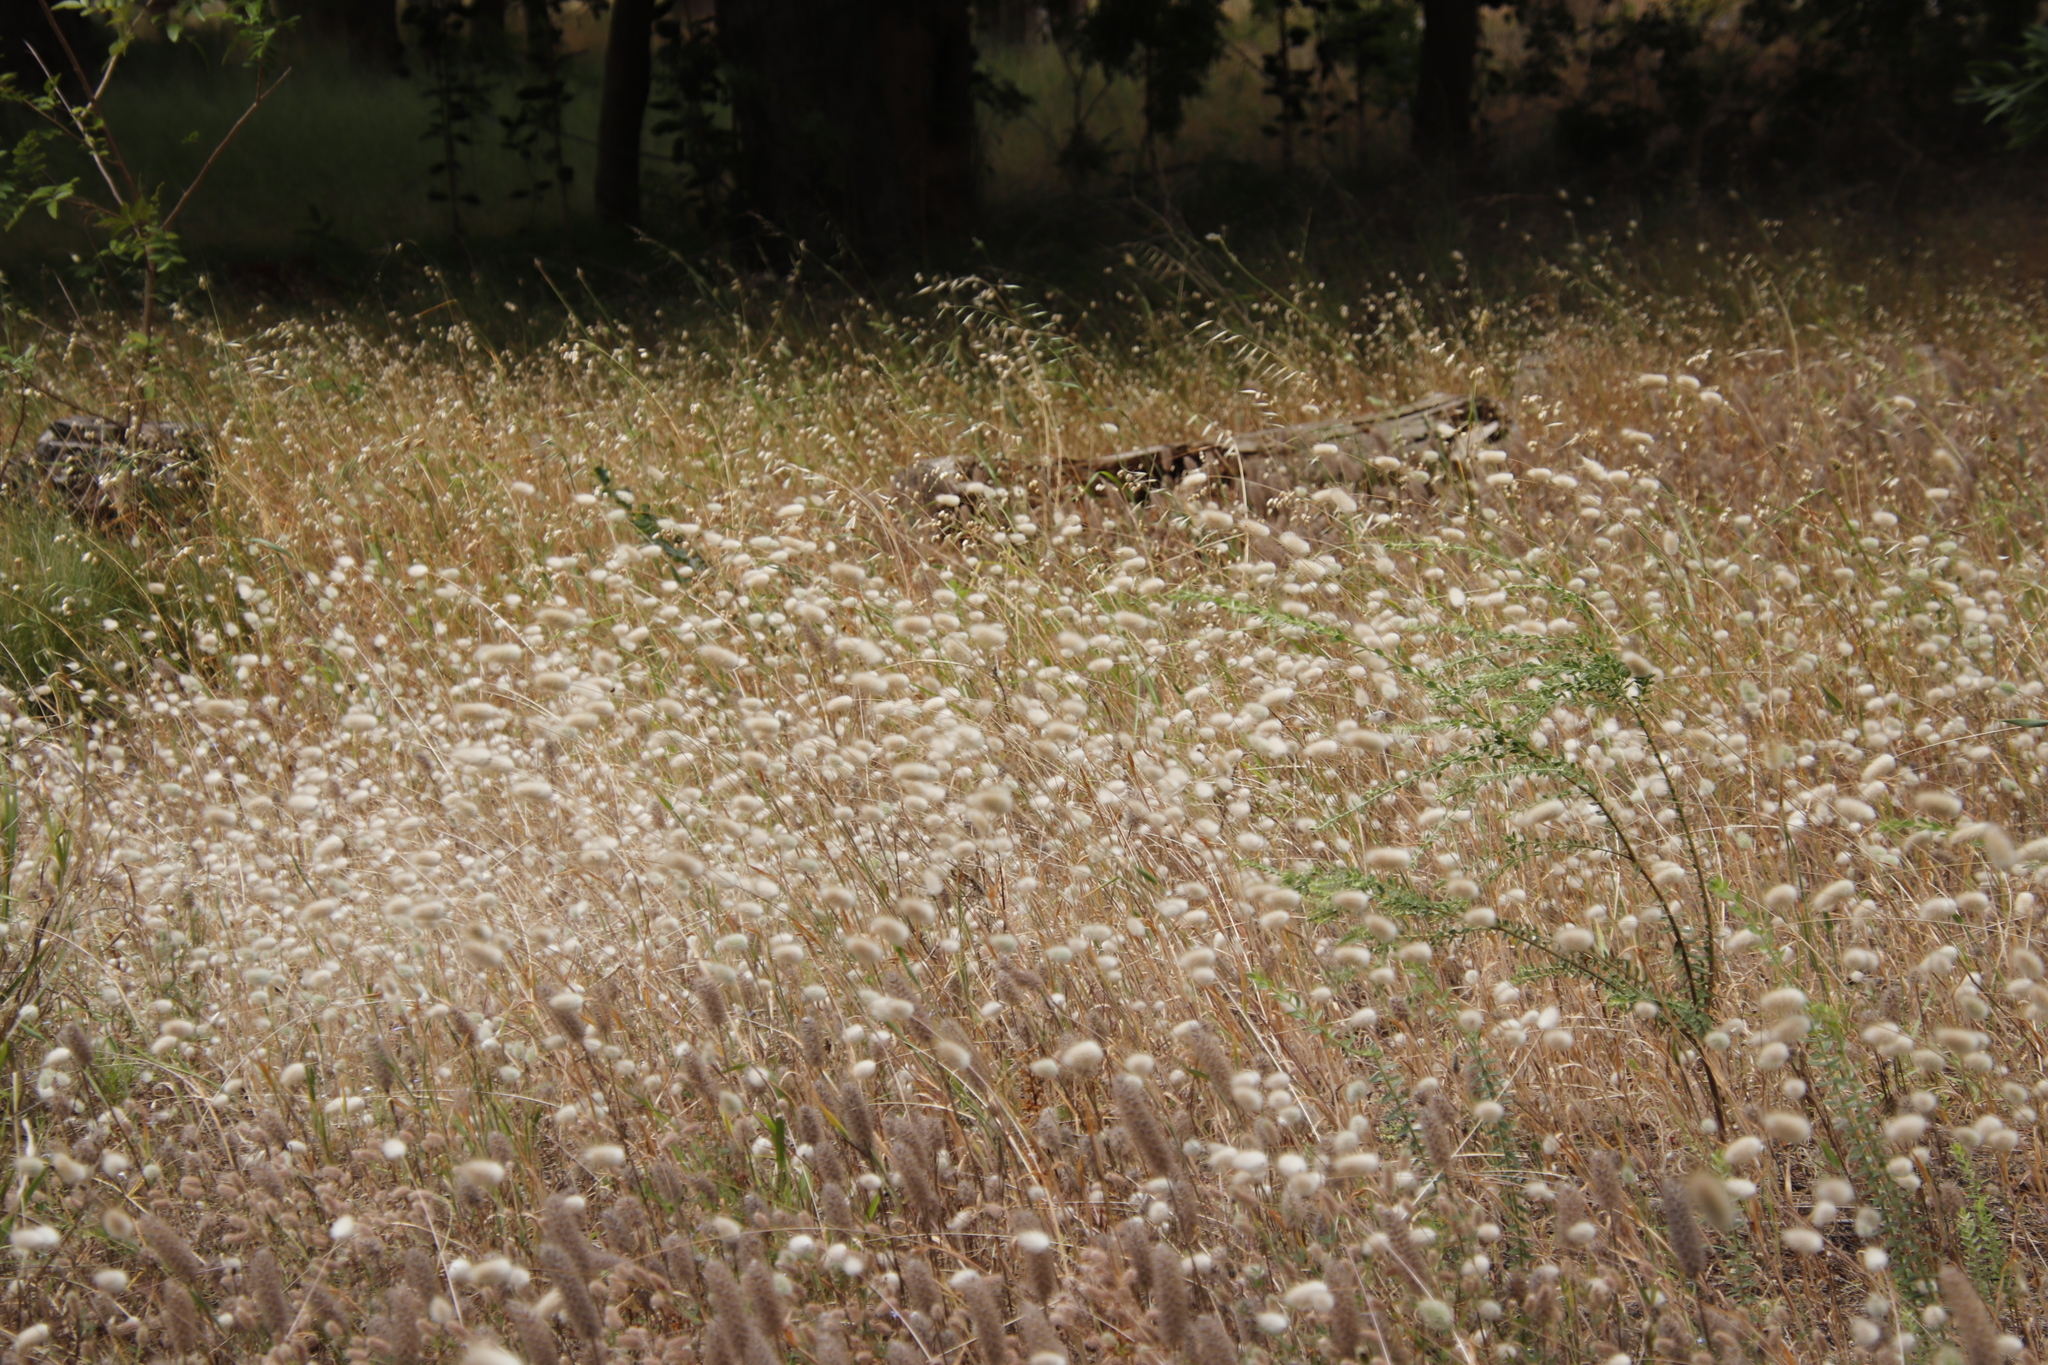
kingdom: Plantae
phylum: Tracheophyta
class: Liliopsida
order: Poales
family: Poaceae
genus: Lagurus
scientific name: Lagurus ovatus
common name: Hare's-tail
